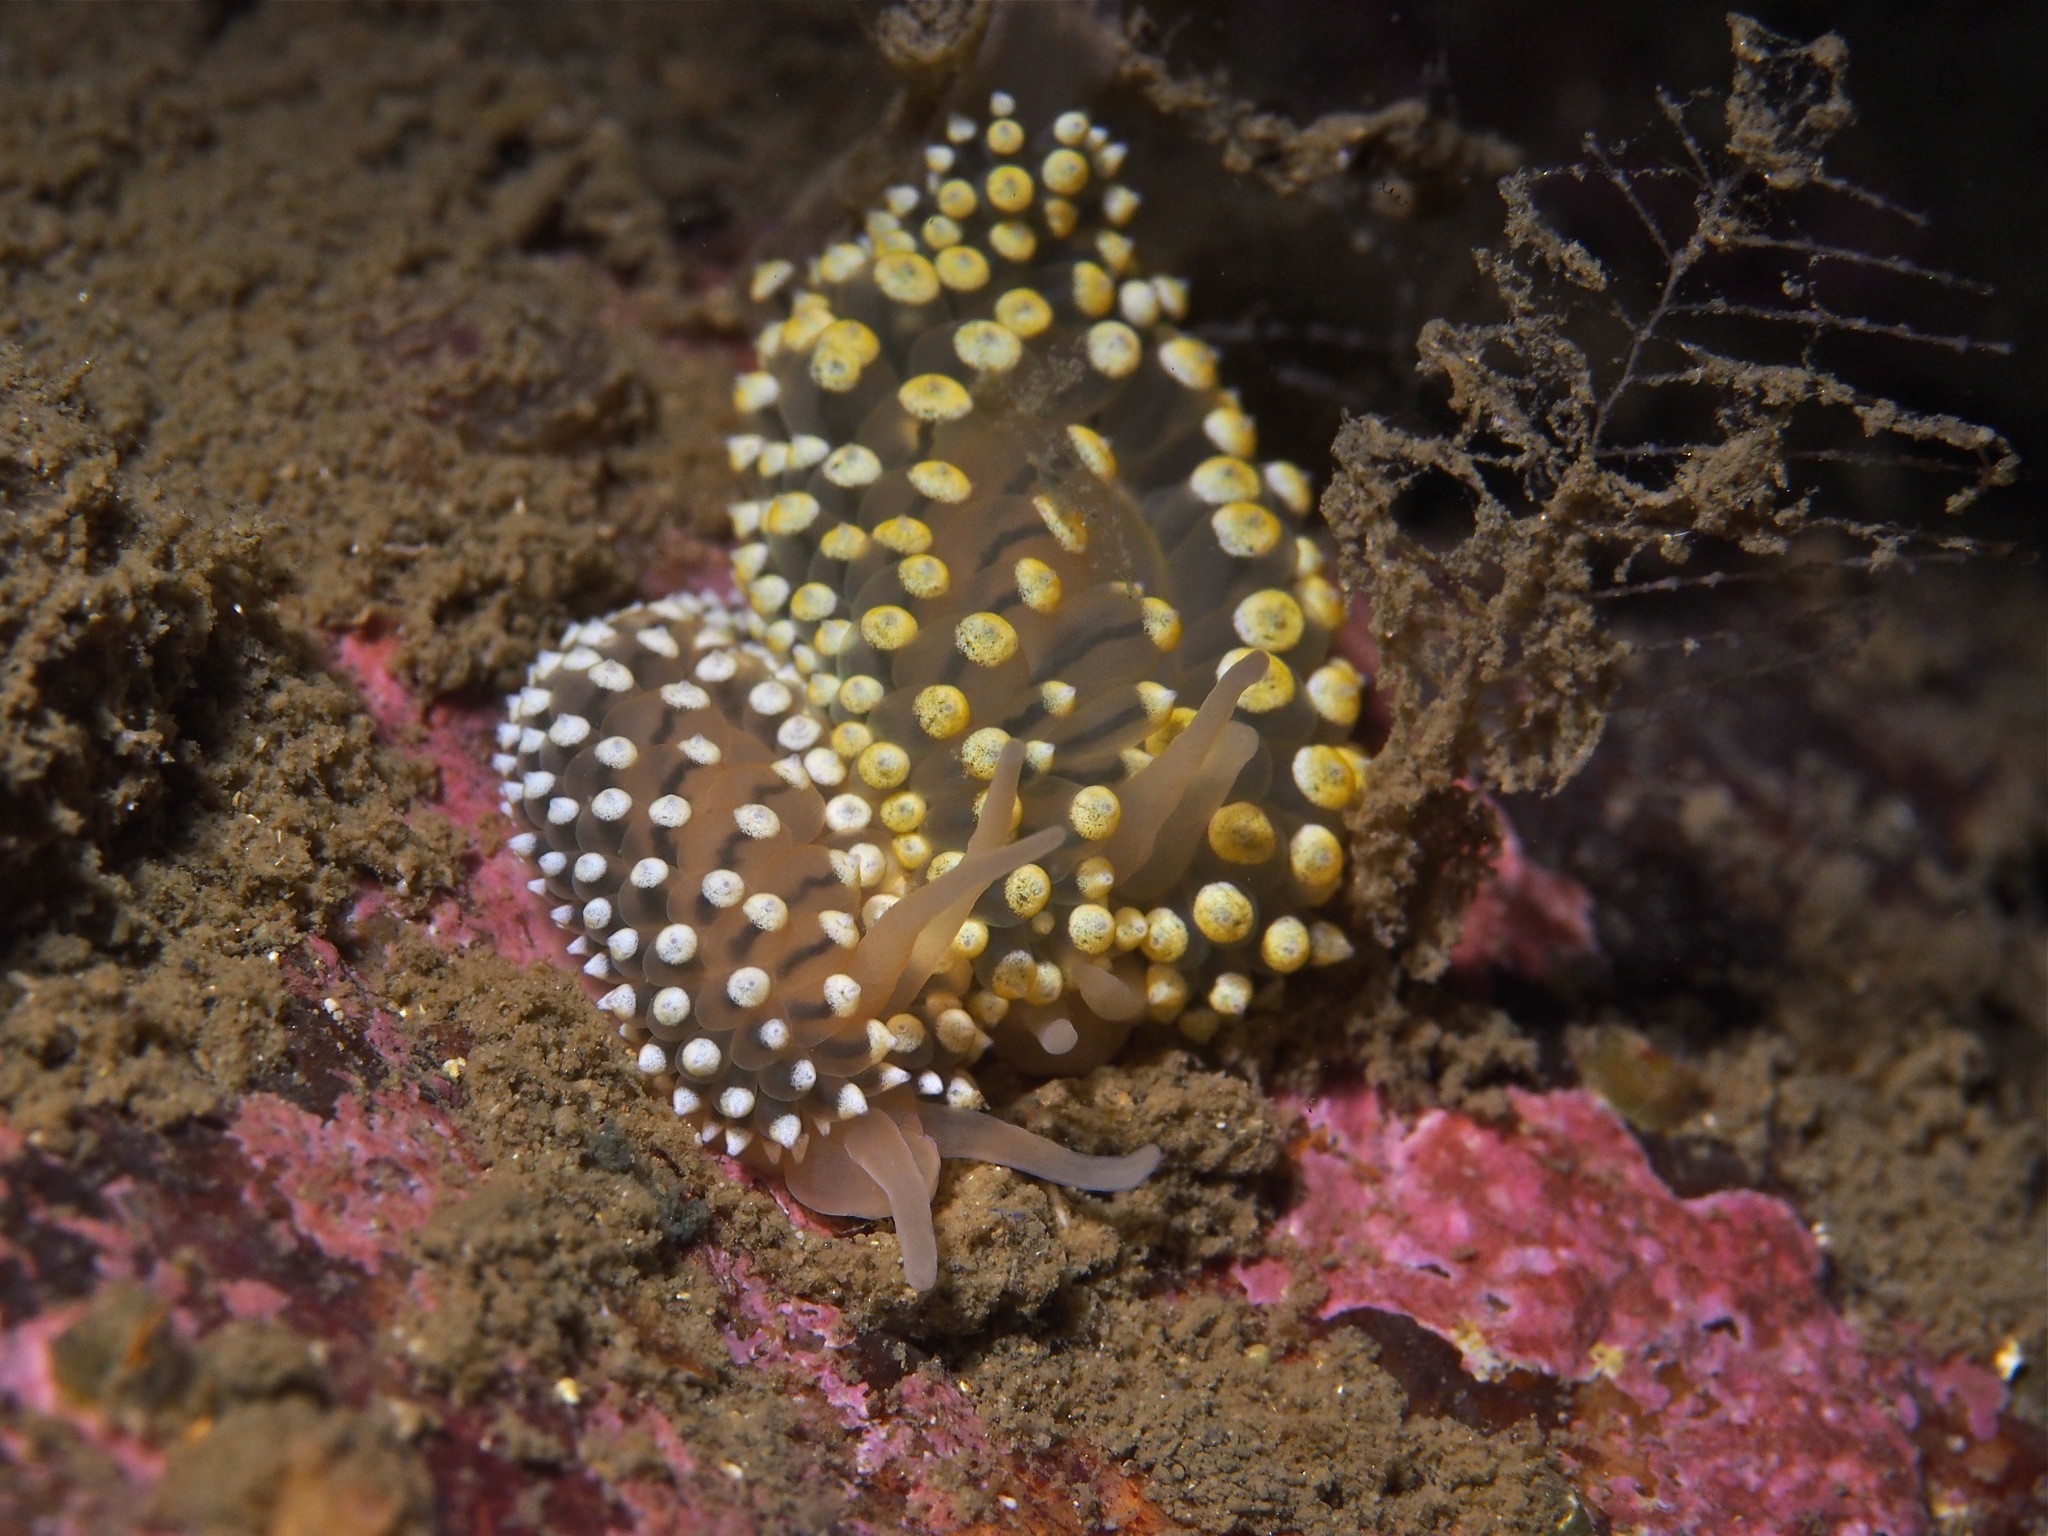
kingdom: Animalia
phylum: Mollusca
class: Gastropoda
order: Nudibranchia
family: Eubranchidae
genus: Eubranchus
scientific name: Eubranchus tricolor
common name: Painted balloon aeolis
